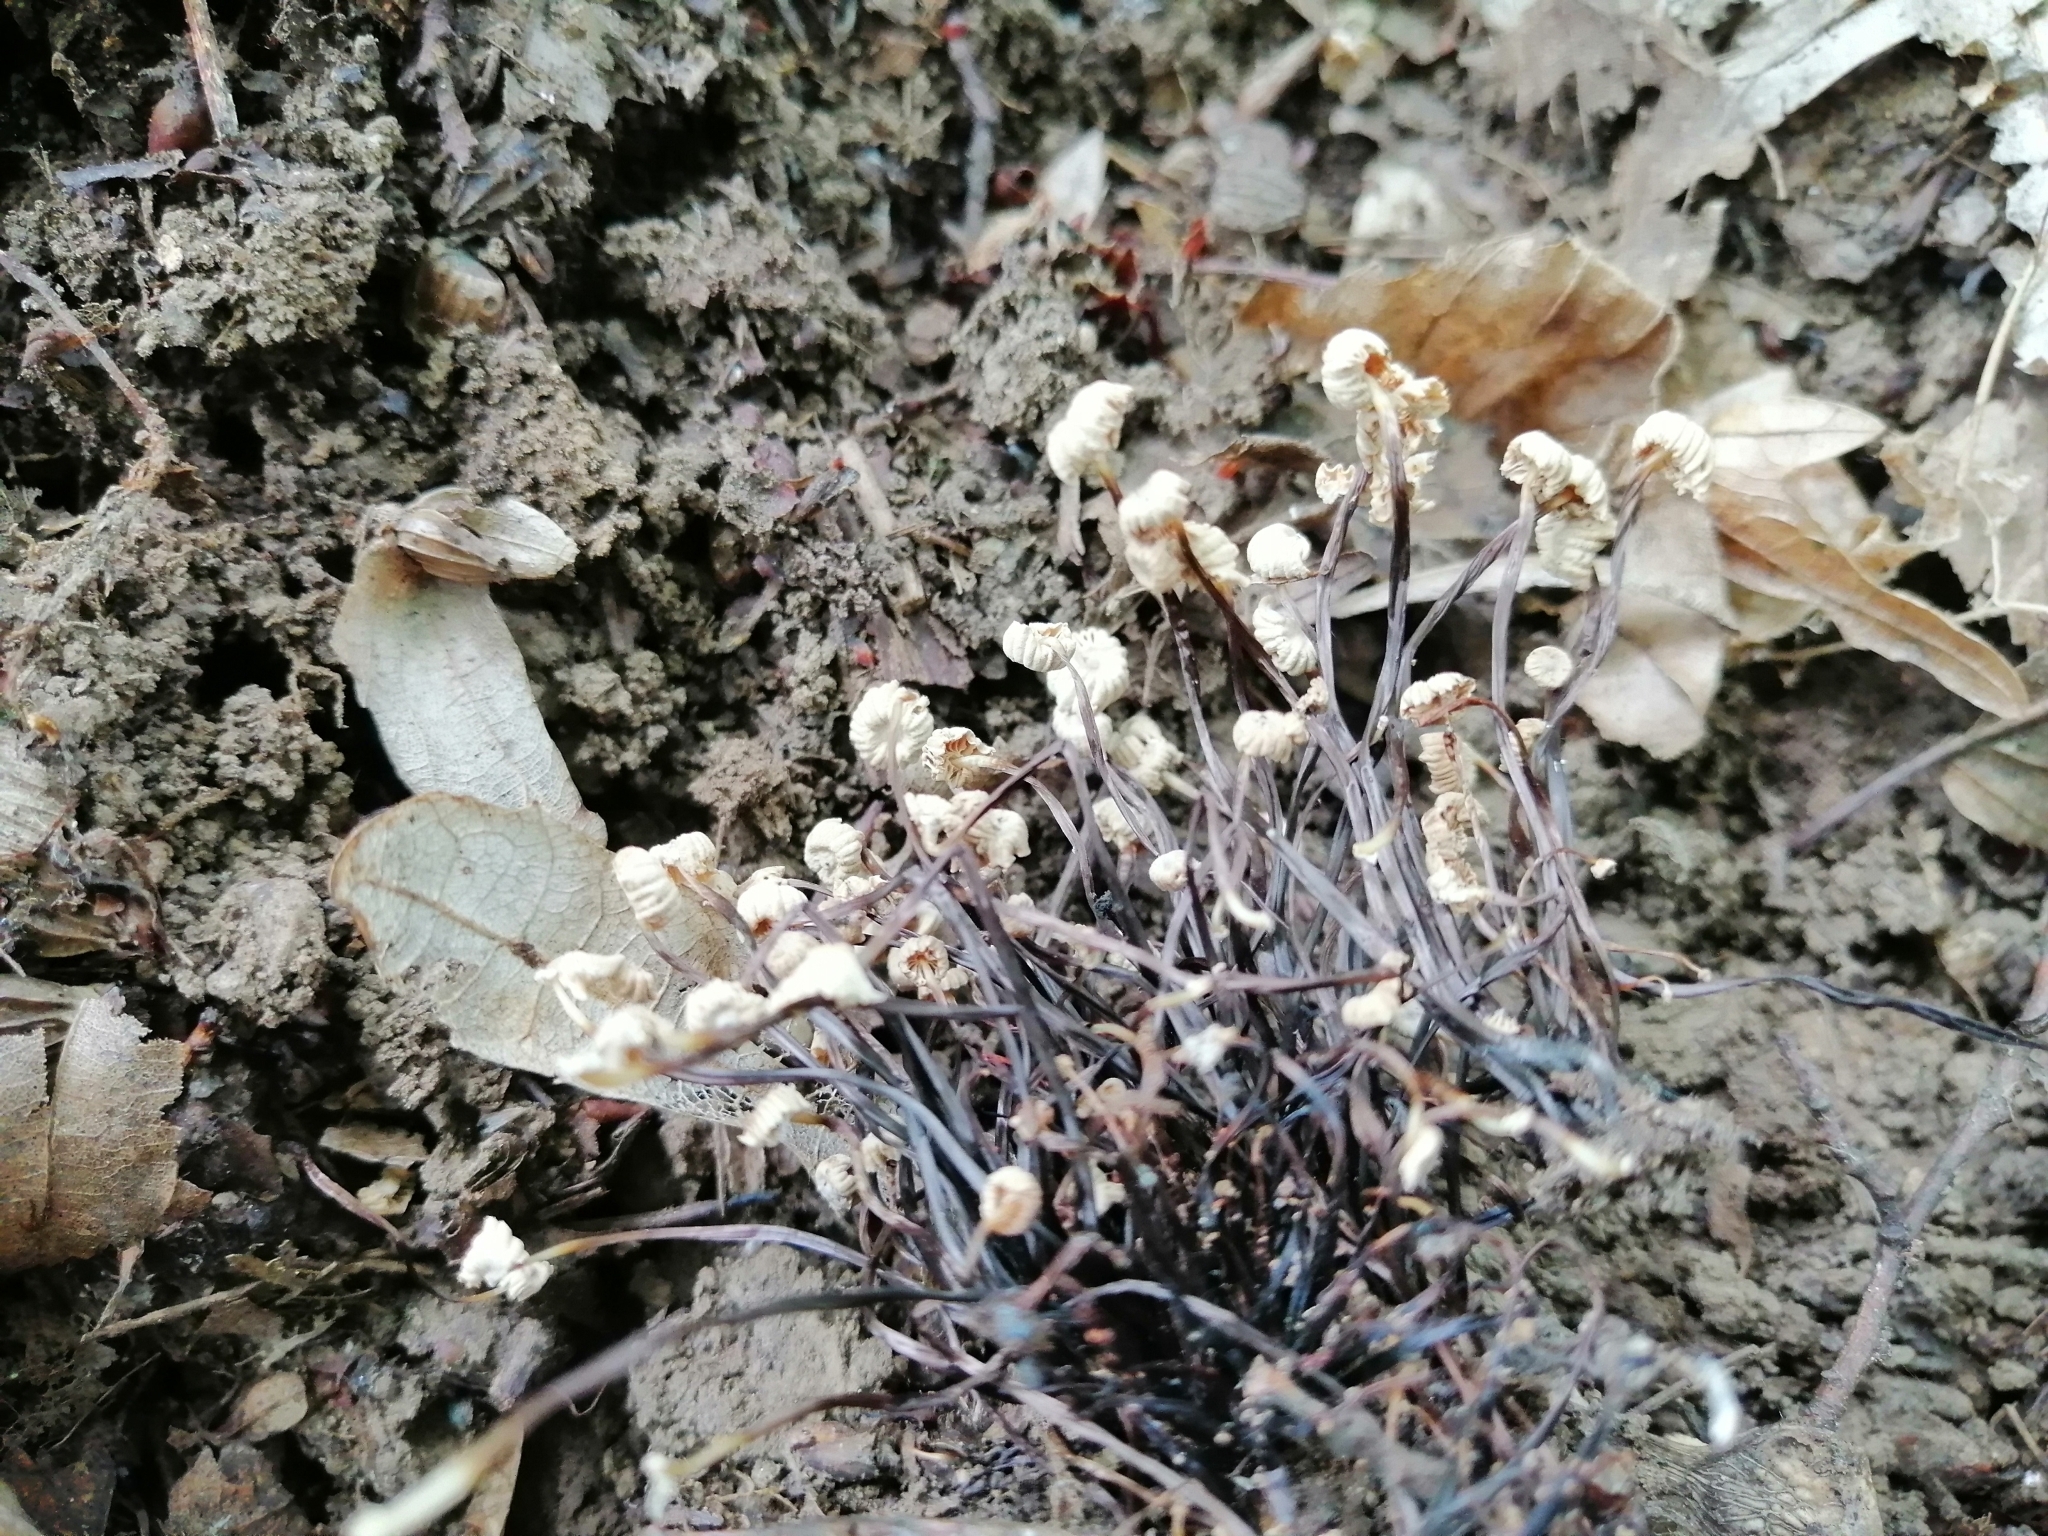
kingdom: Fungi
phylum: Basidiomycota
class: Agaricomycetes
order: Agaricales
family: Marasmiaceae
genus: Marasmius
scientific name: Marasmius rotula
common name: Collared parachute
